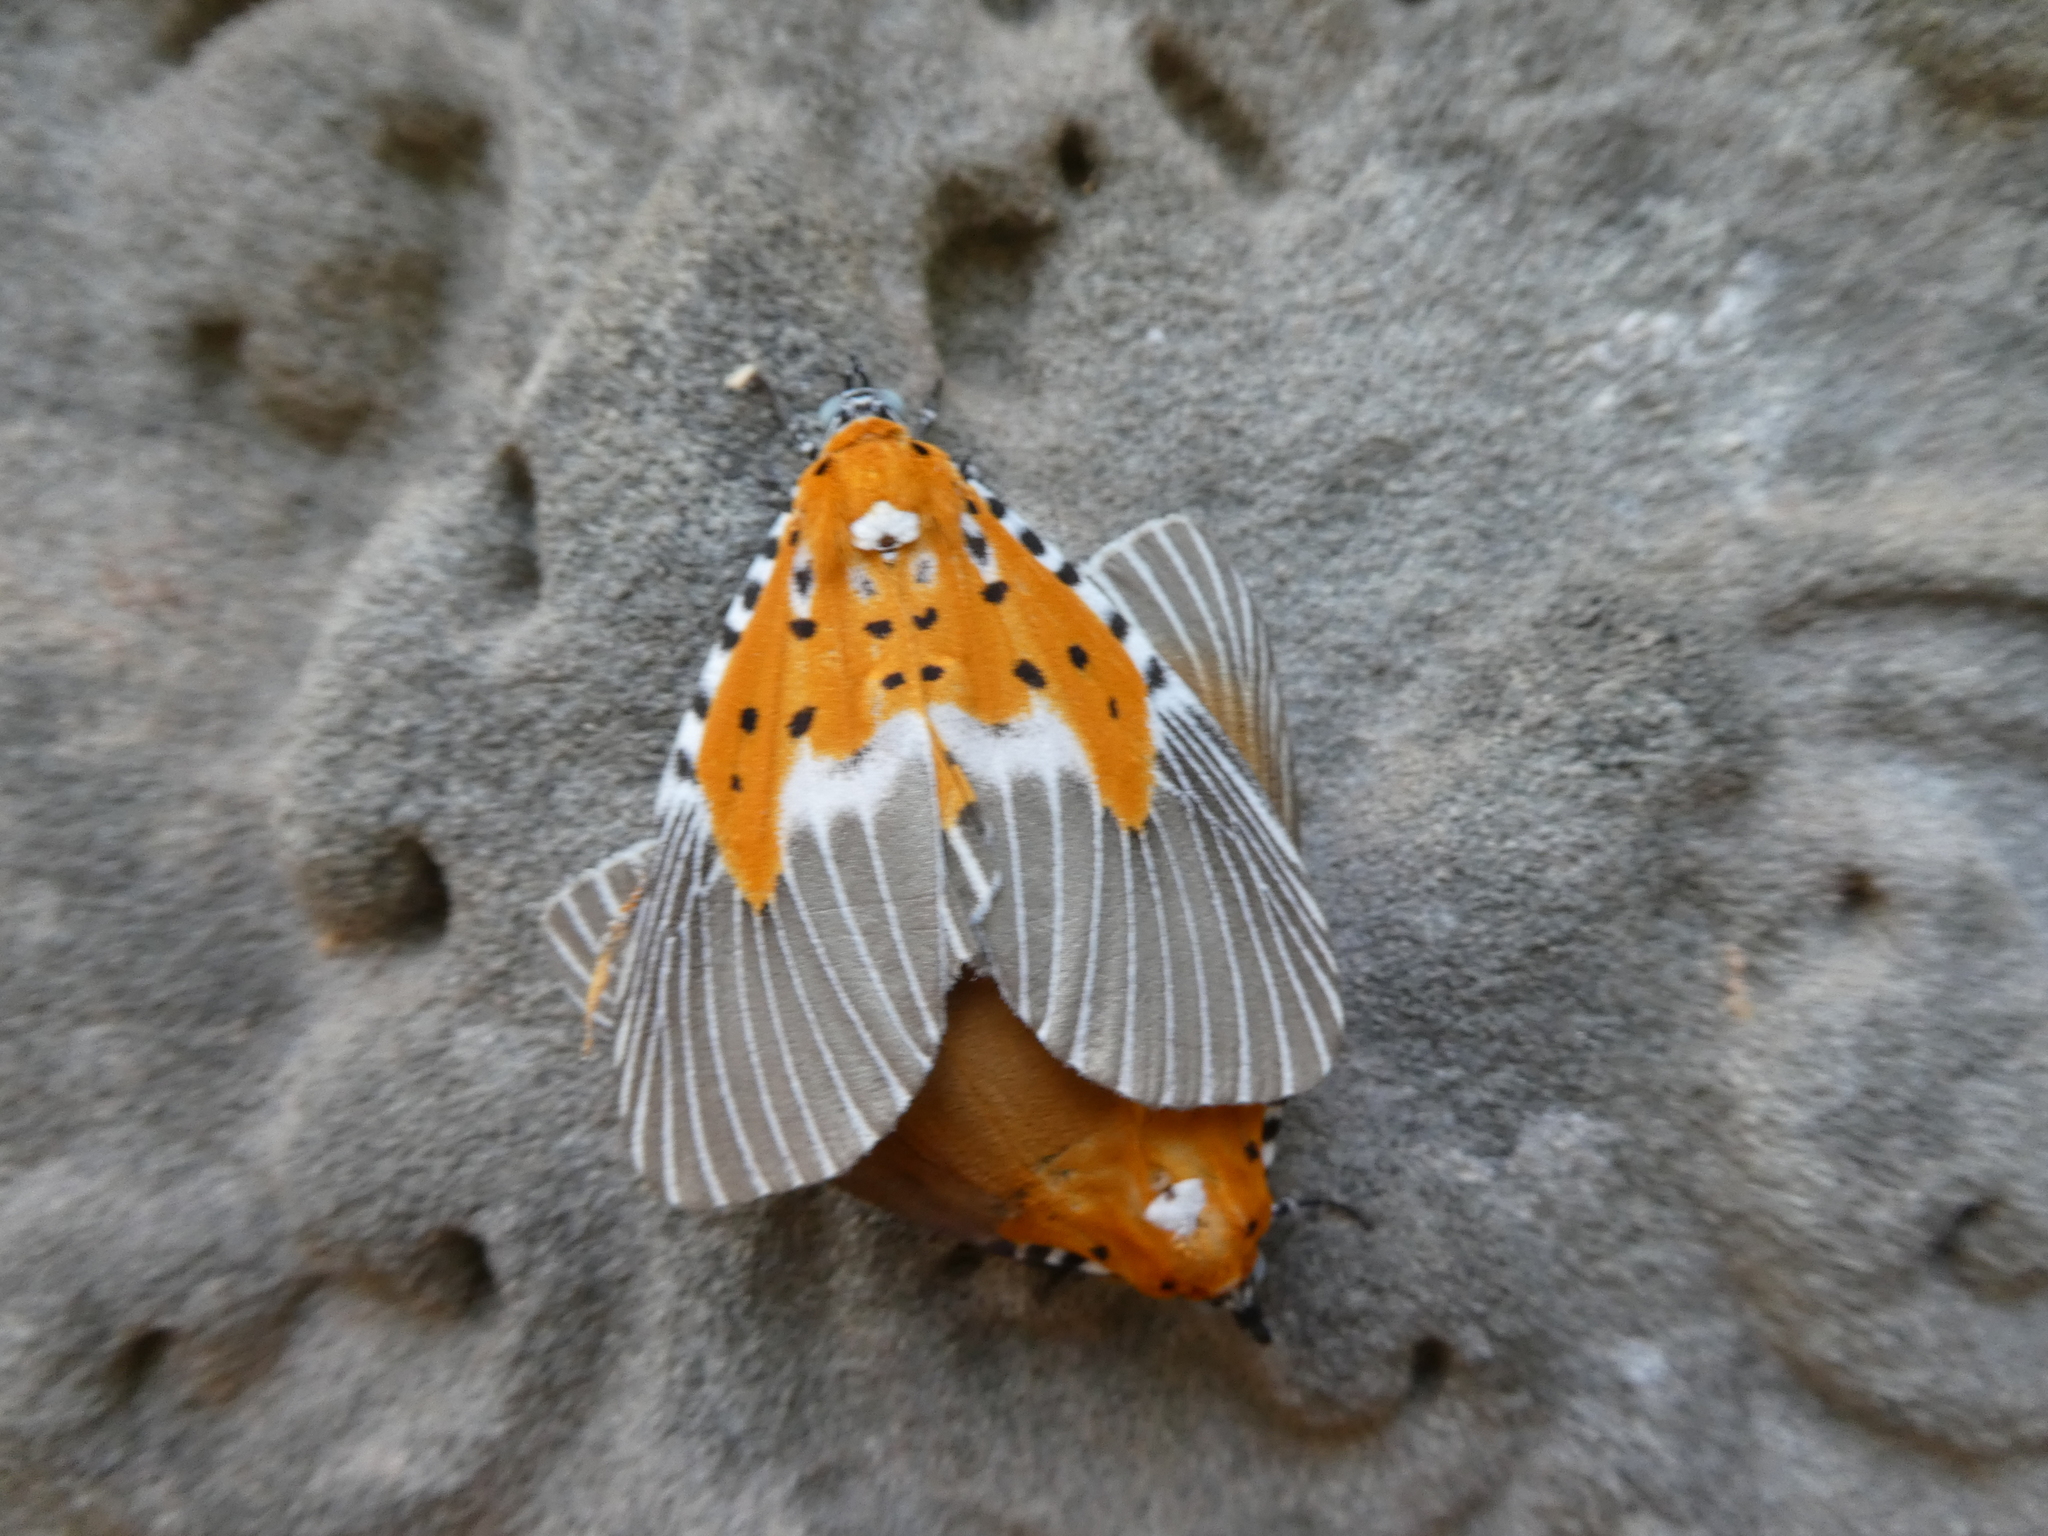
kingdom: Animalia
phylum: Arthropoda
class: Insecta
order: Lepidoptera
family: Erebidae
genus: Peridrome
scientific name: Peridrome subfascia
